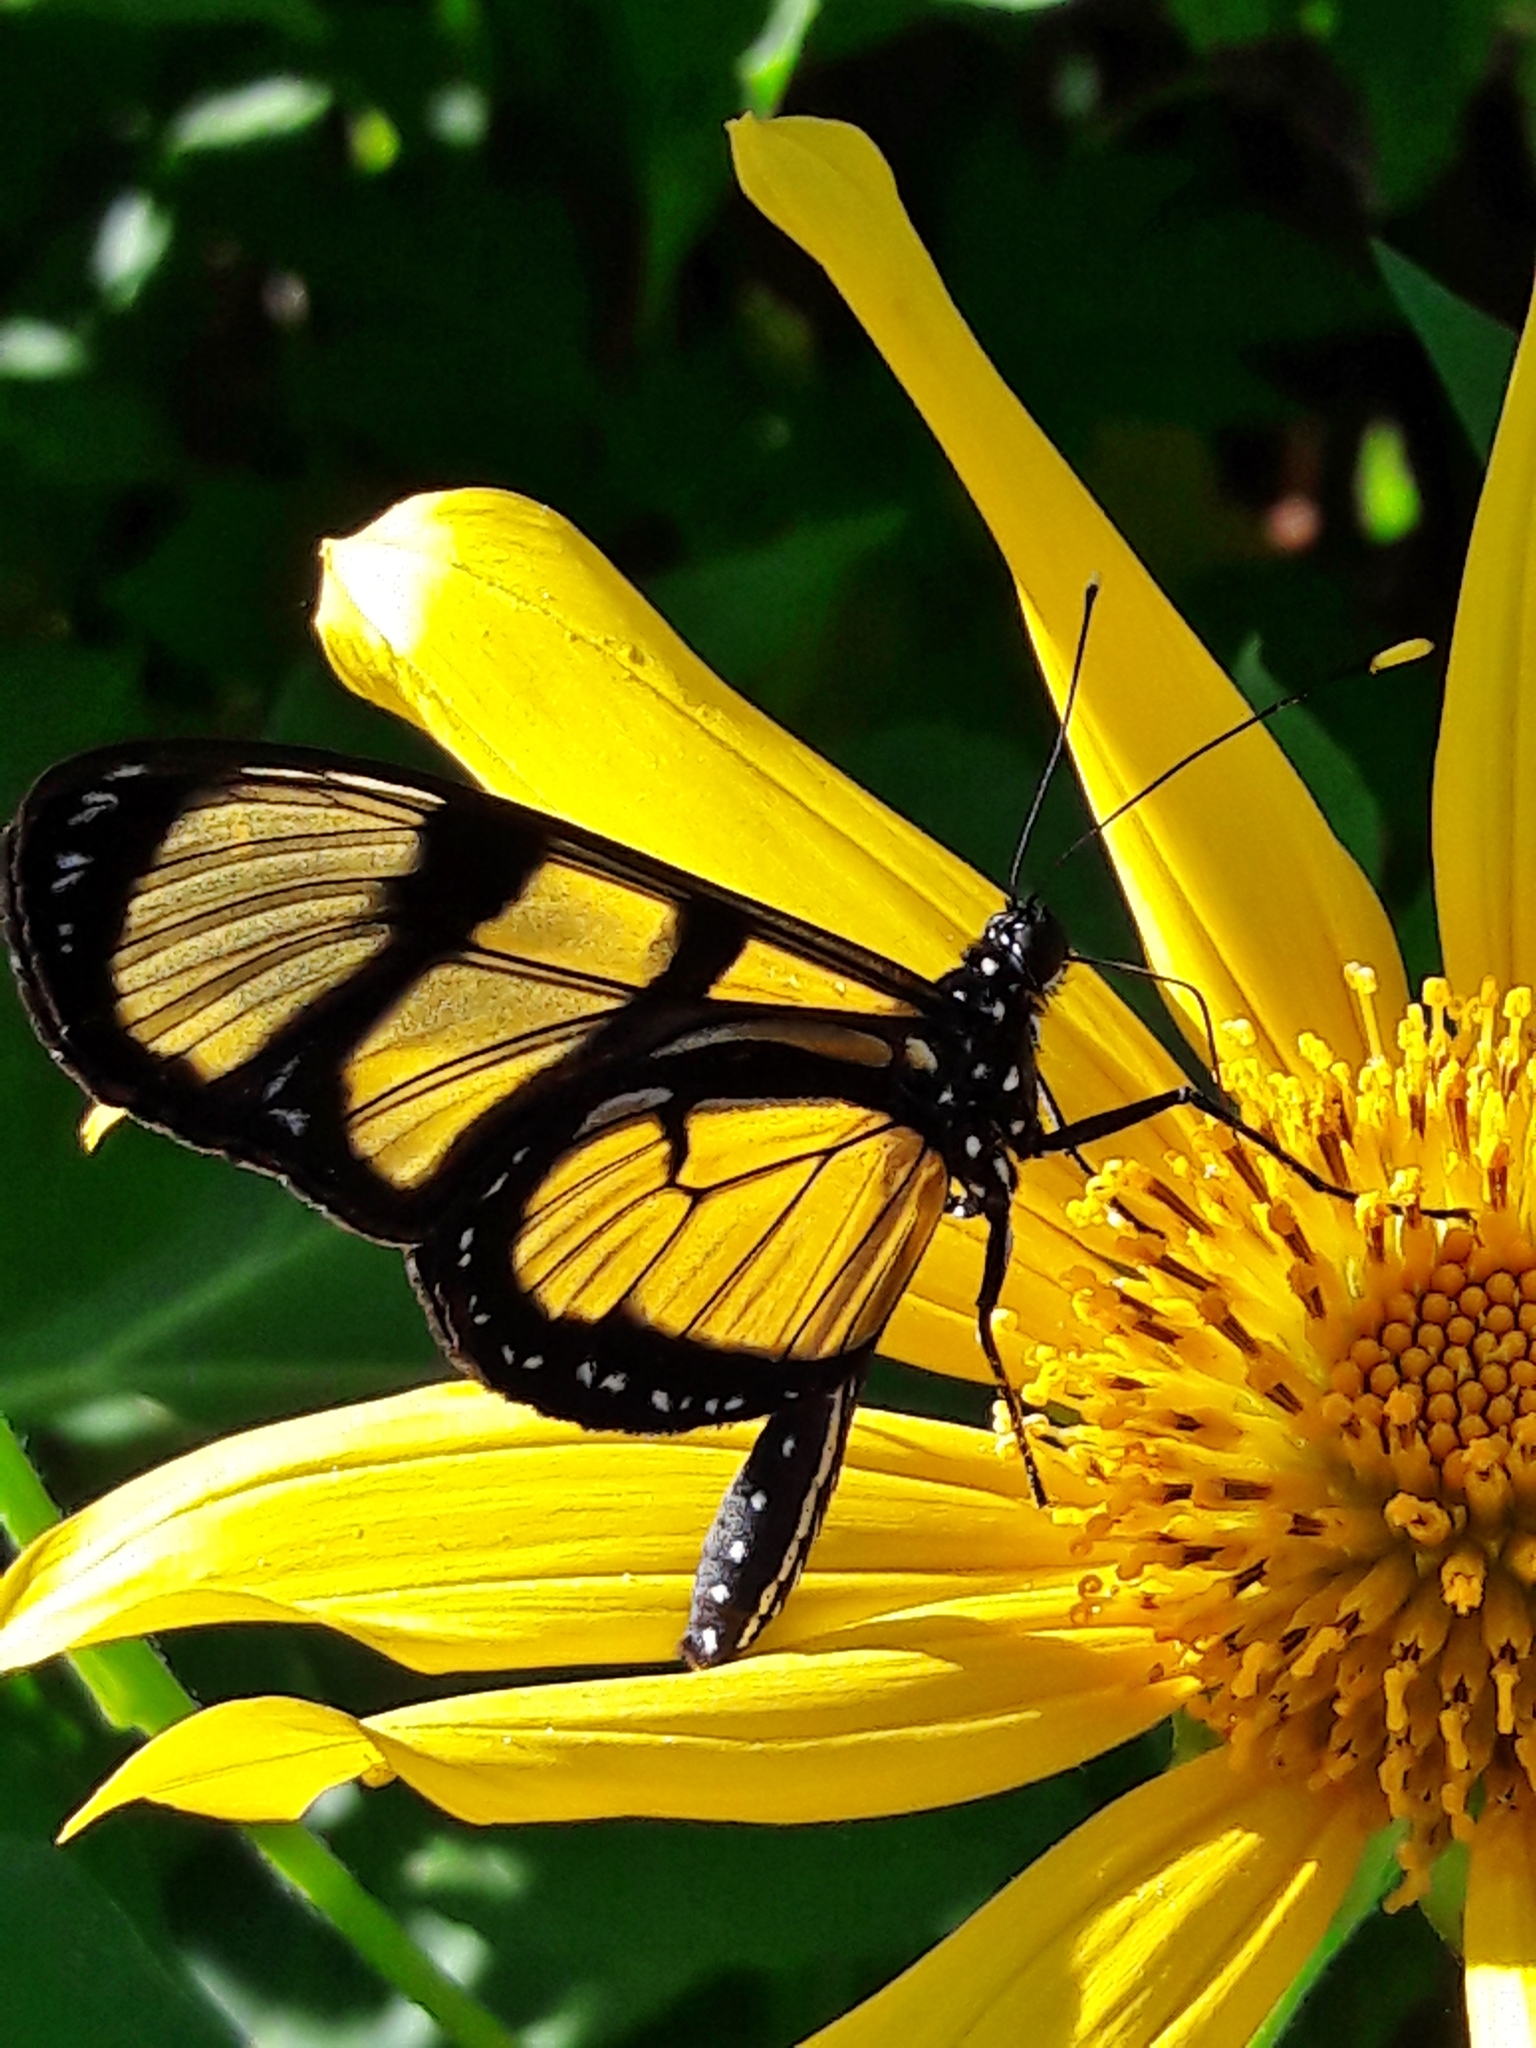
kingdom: Animalia
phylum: Arthropoda
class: Insecta
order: Lepidoptera
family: Nymphalidae
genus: Methona
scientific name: Methona themisto
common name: Themisto amberwing
